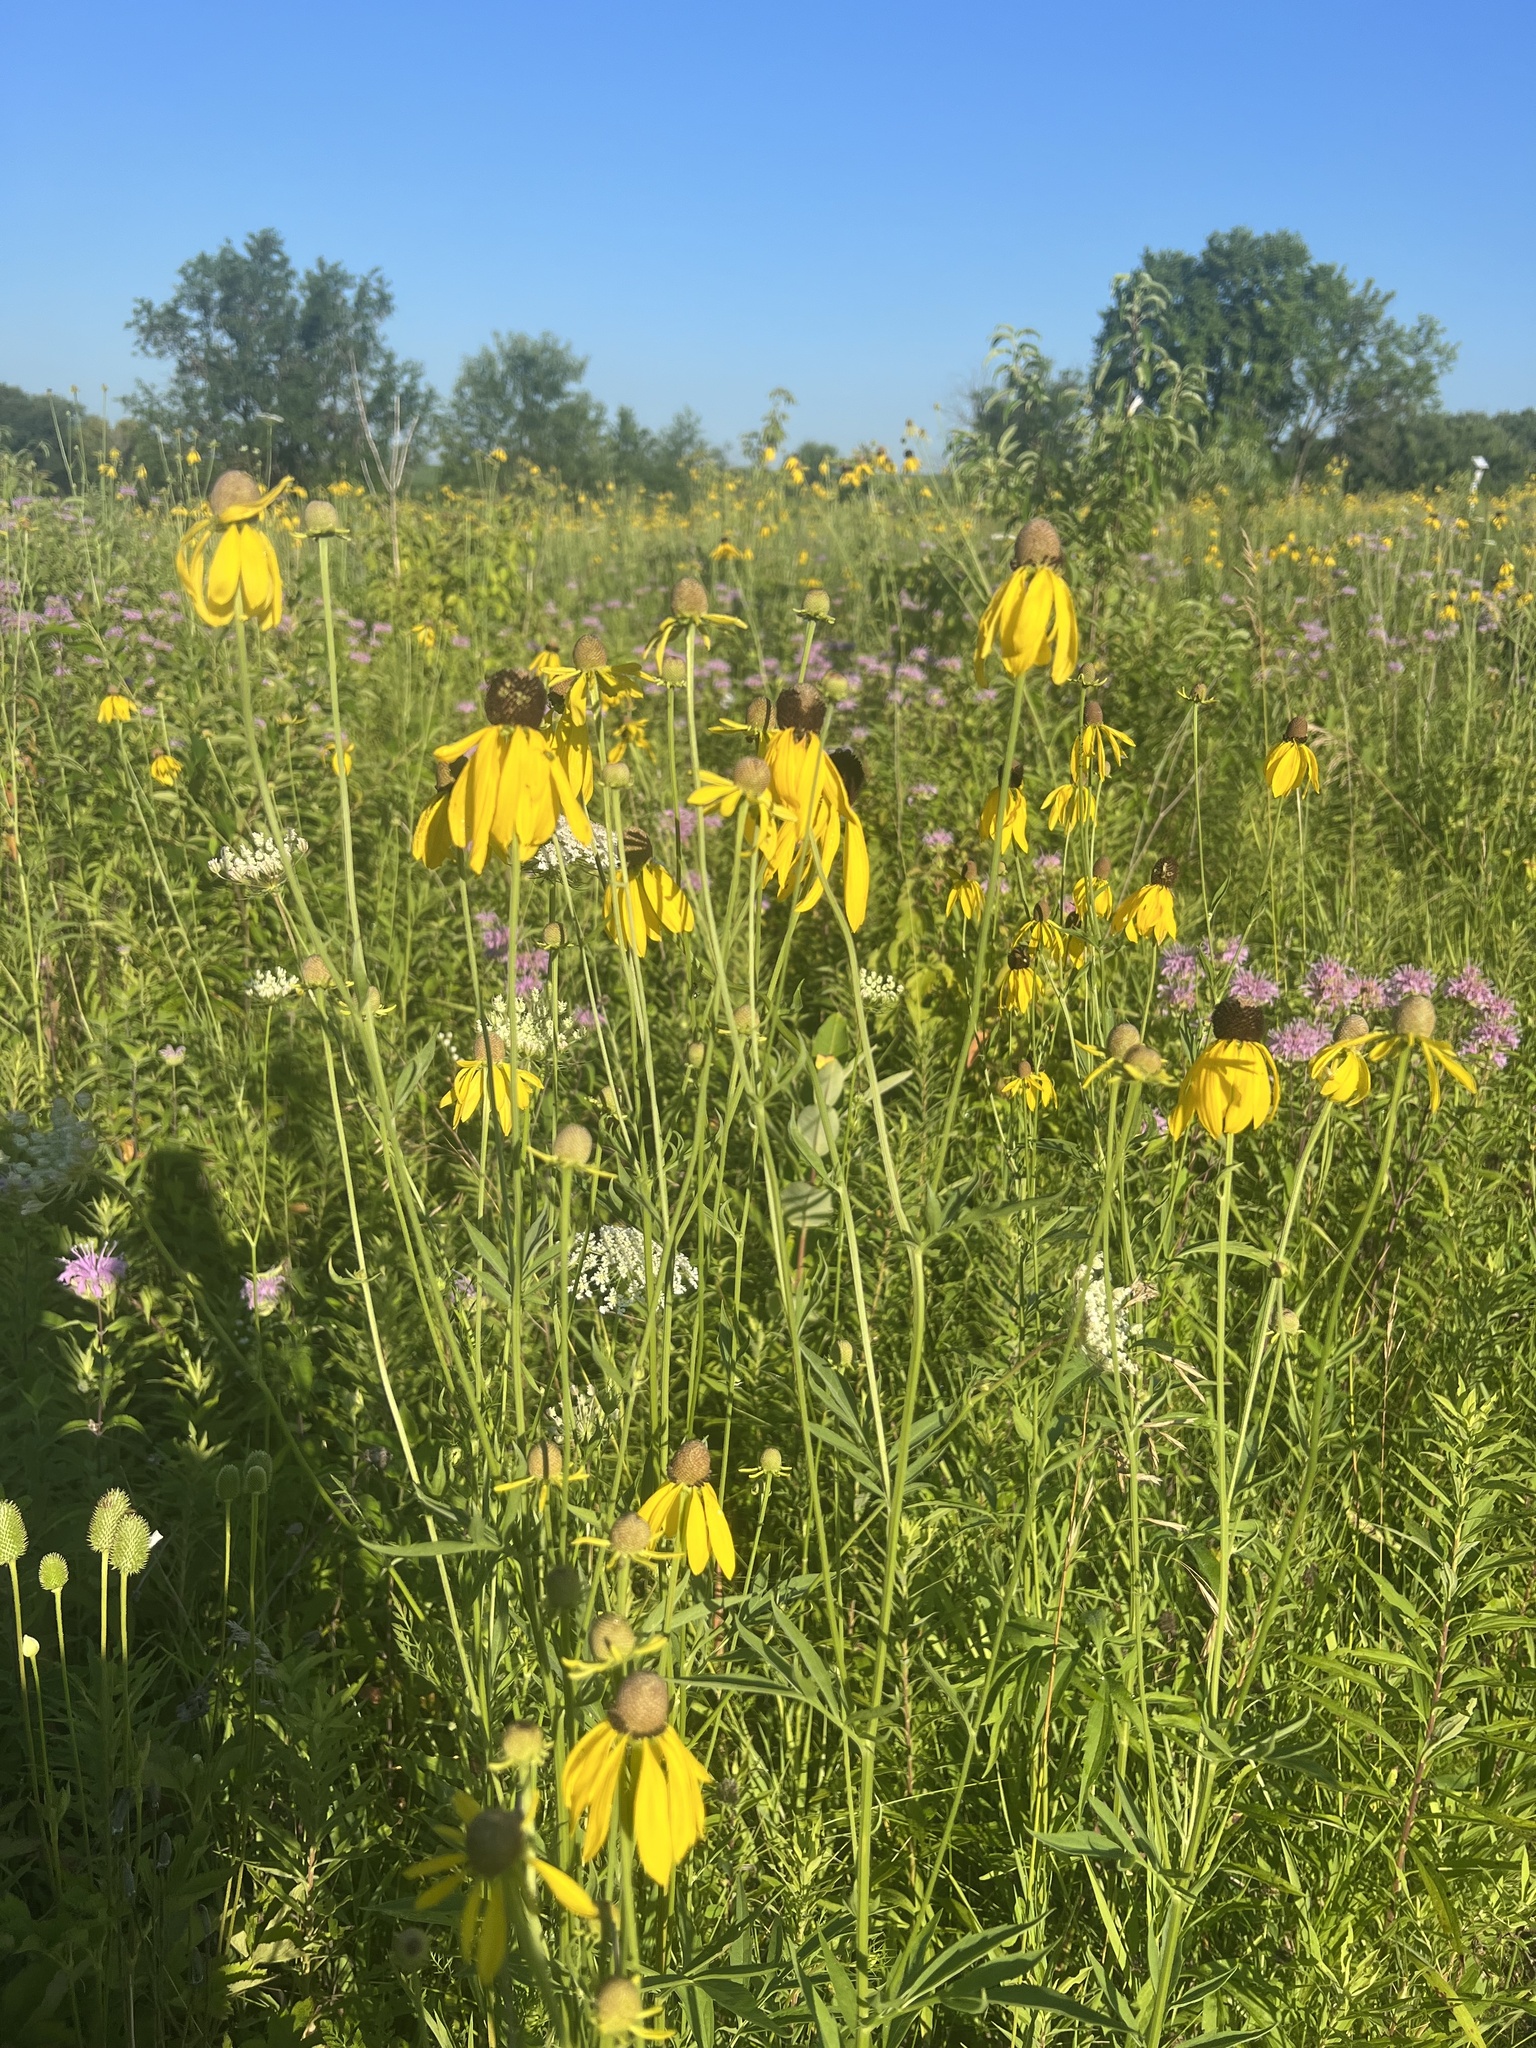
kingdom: Plantae
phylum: Tracheophyta
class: Magnoliopsida
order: Asterales
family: Asteraceae
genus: Ratibida
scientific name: Ratibida pinnata
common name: Drooping prairie-coneflower
